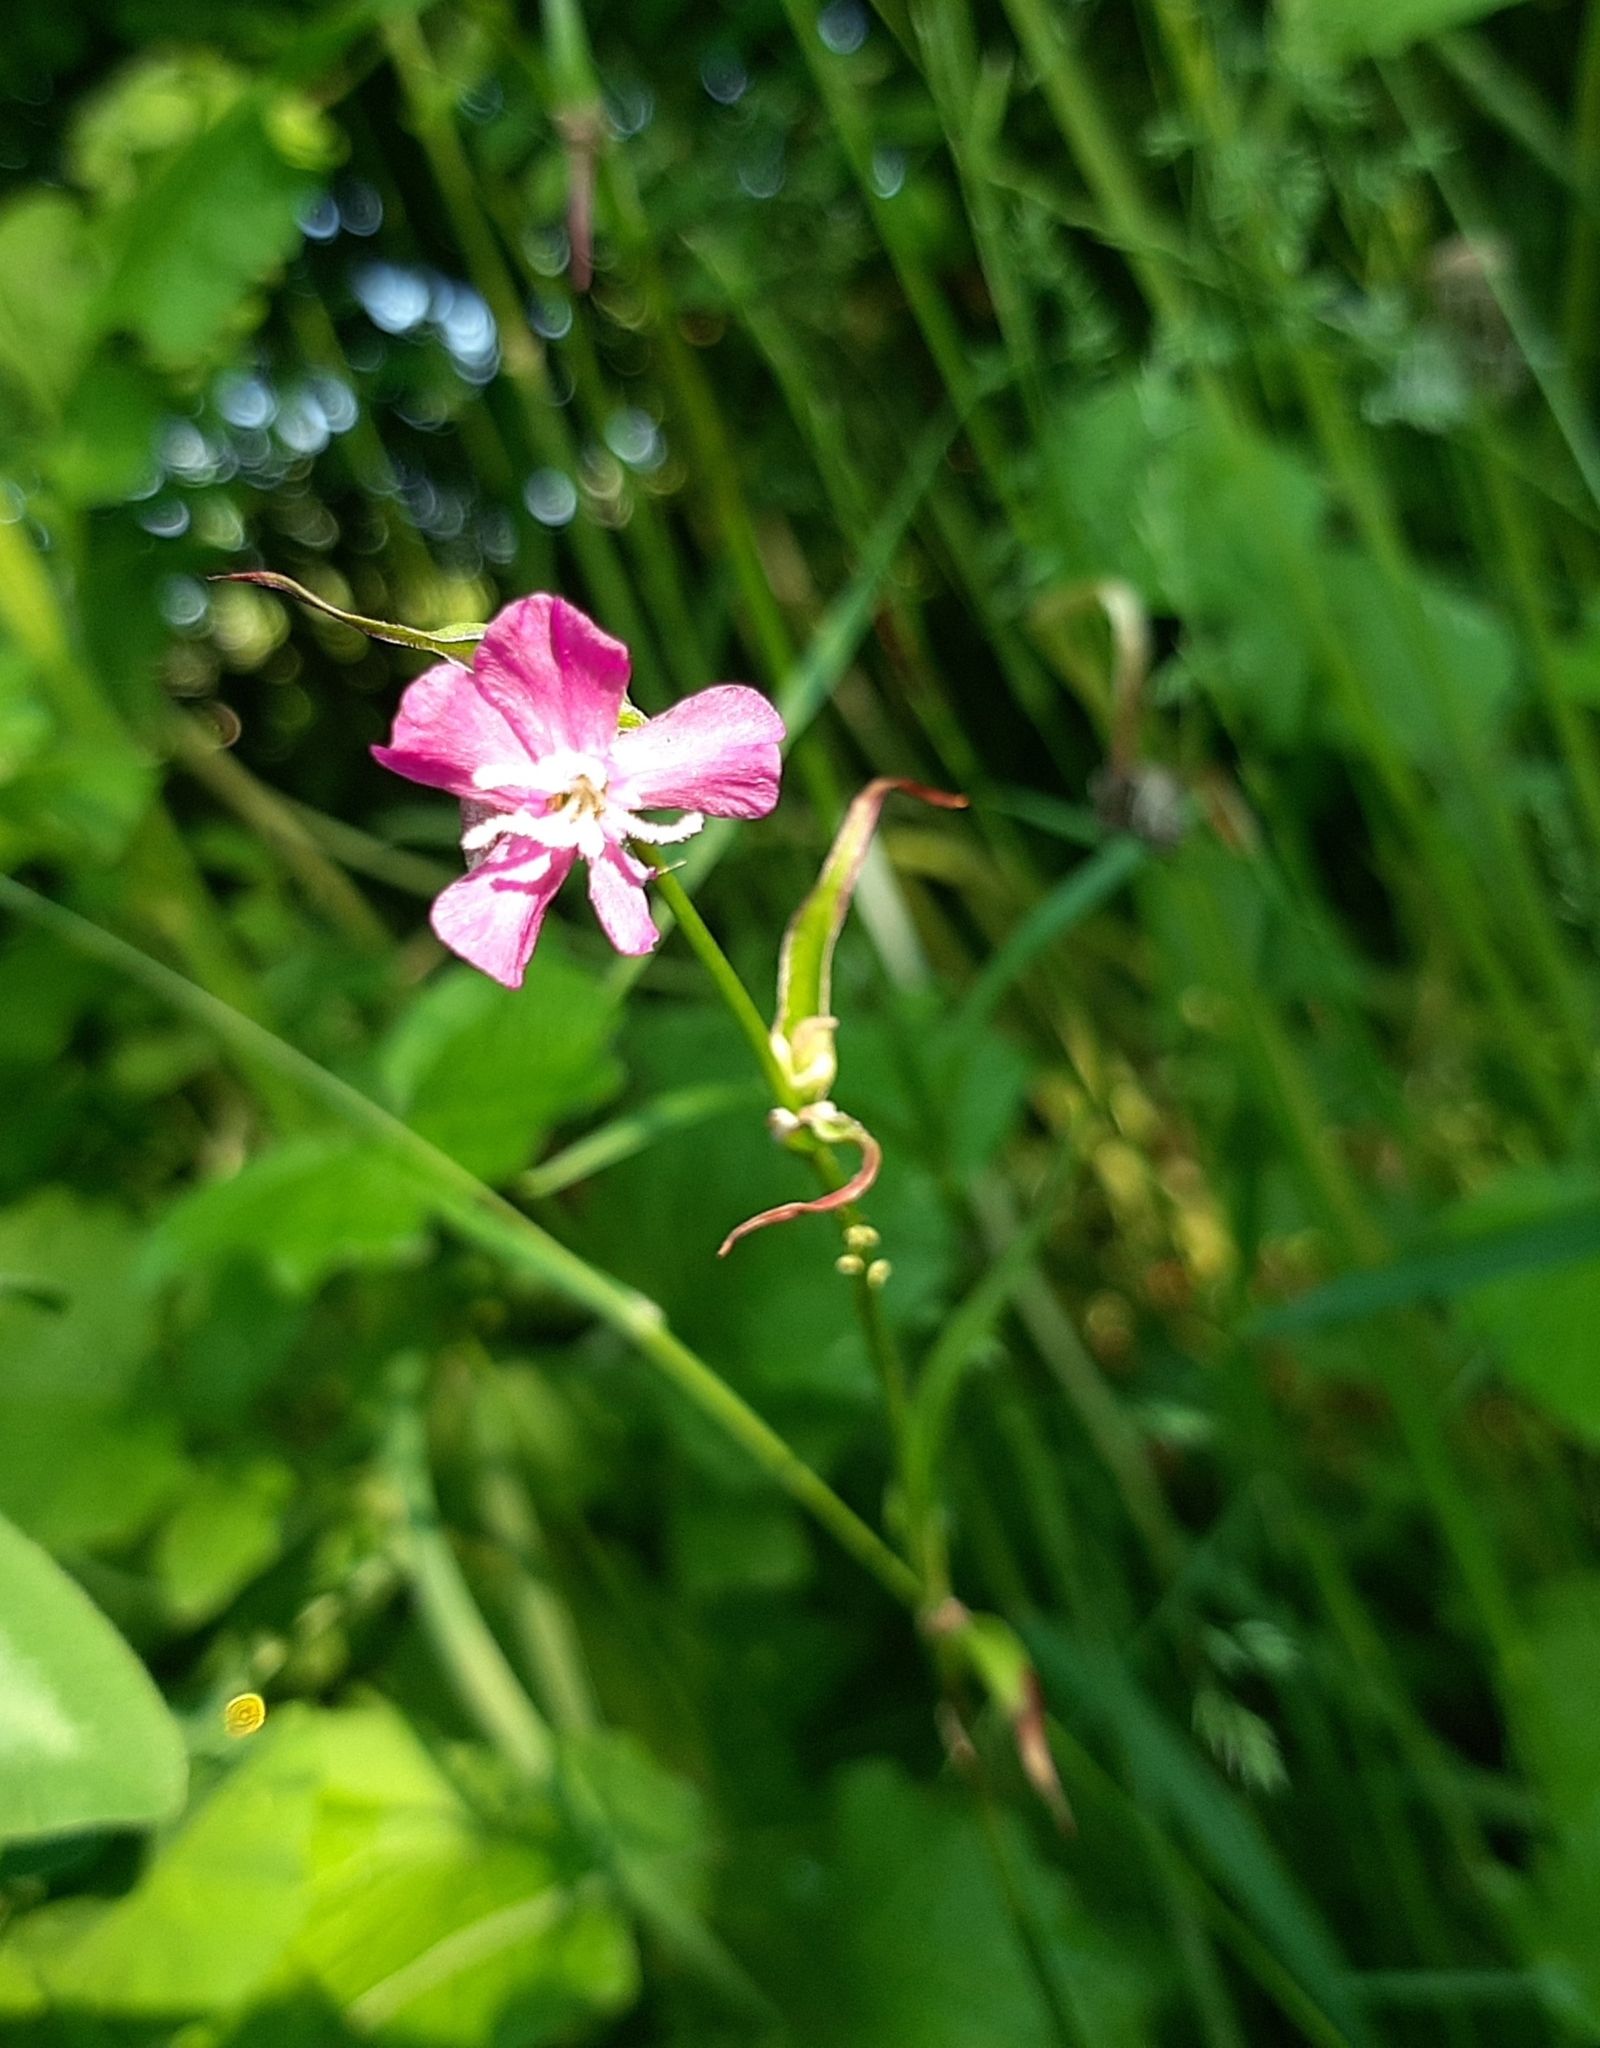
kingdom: Plantae
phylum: Tracheophyta
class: Magnoliopsida
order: Caryophyllales
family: Caryophyllaceae
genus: Viscaria
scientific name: Viscaria vulgaris
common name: Clammy campion
